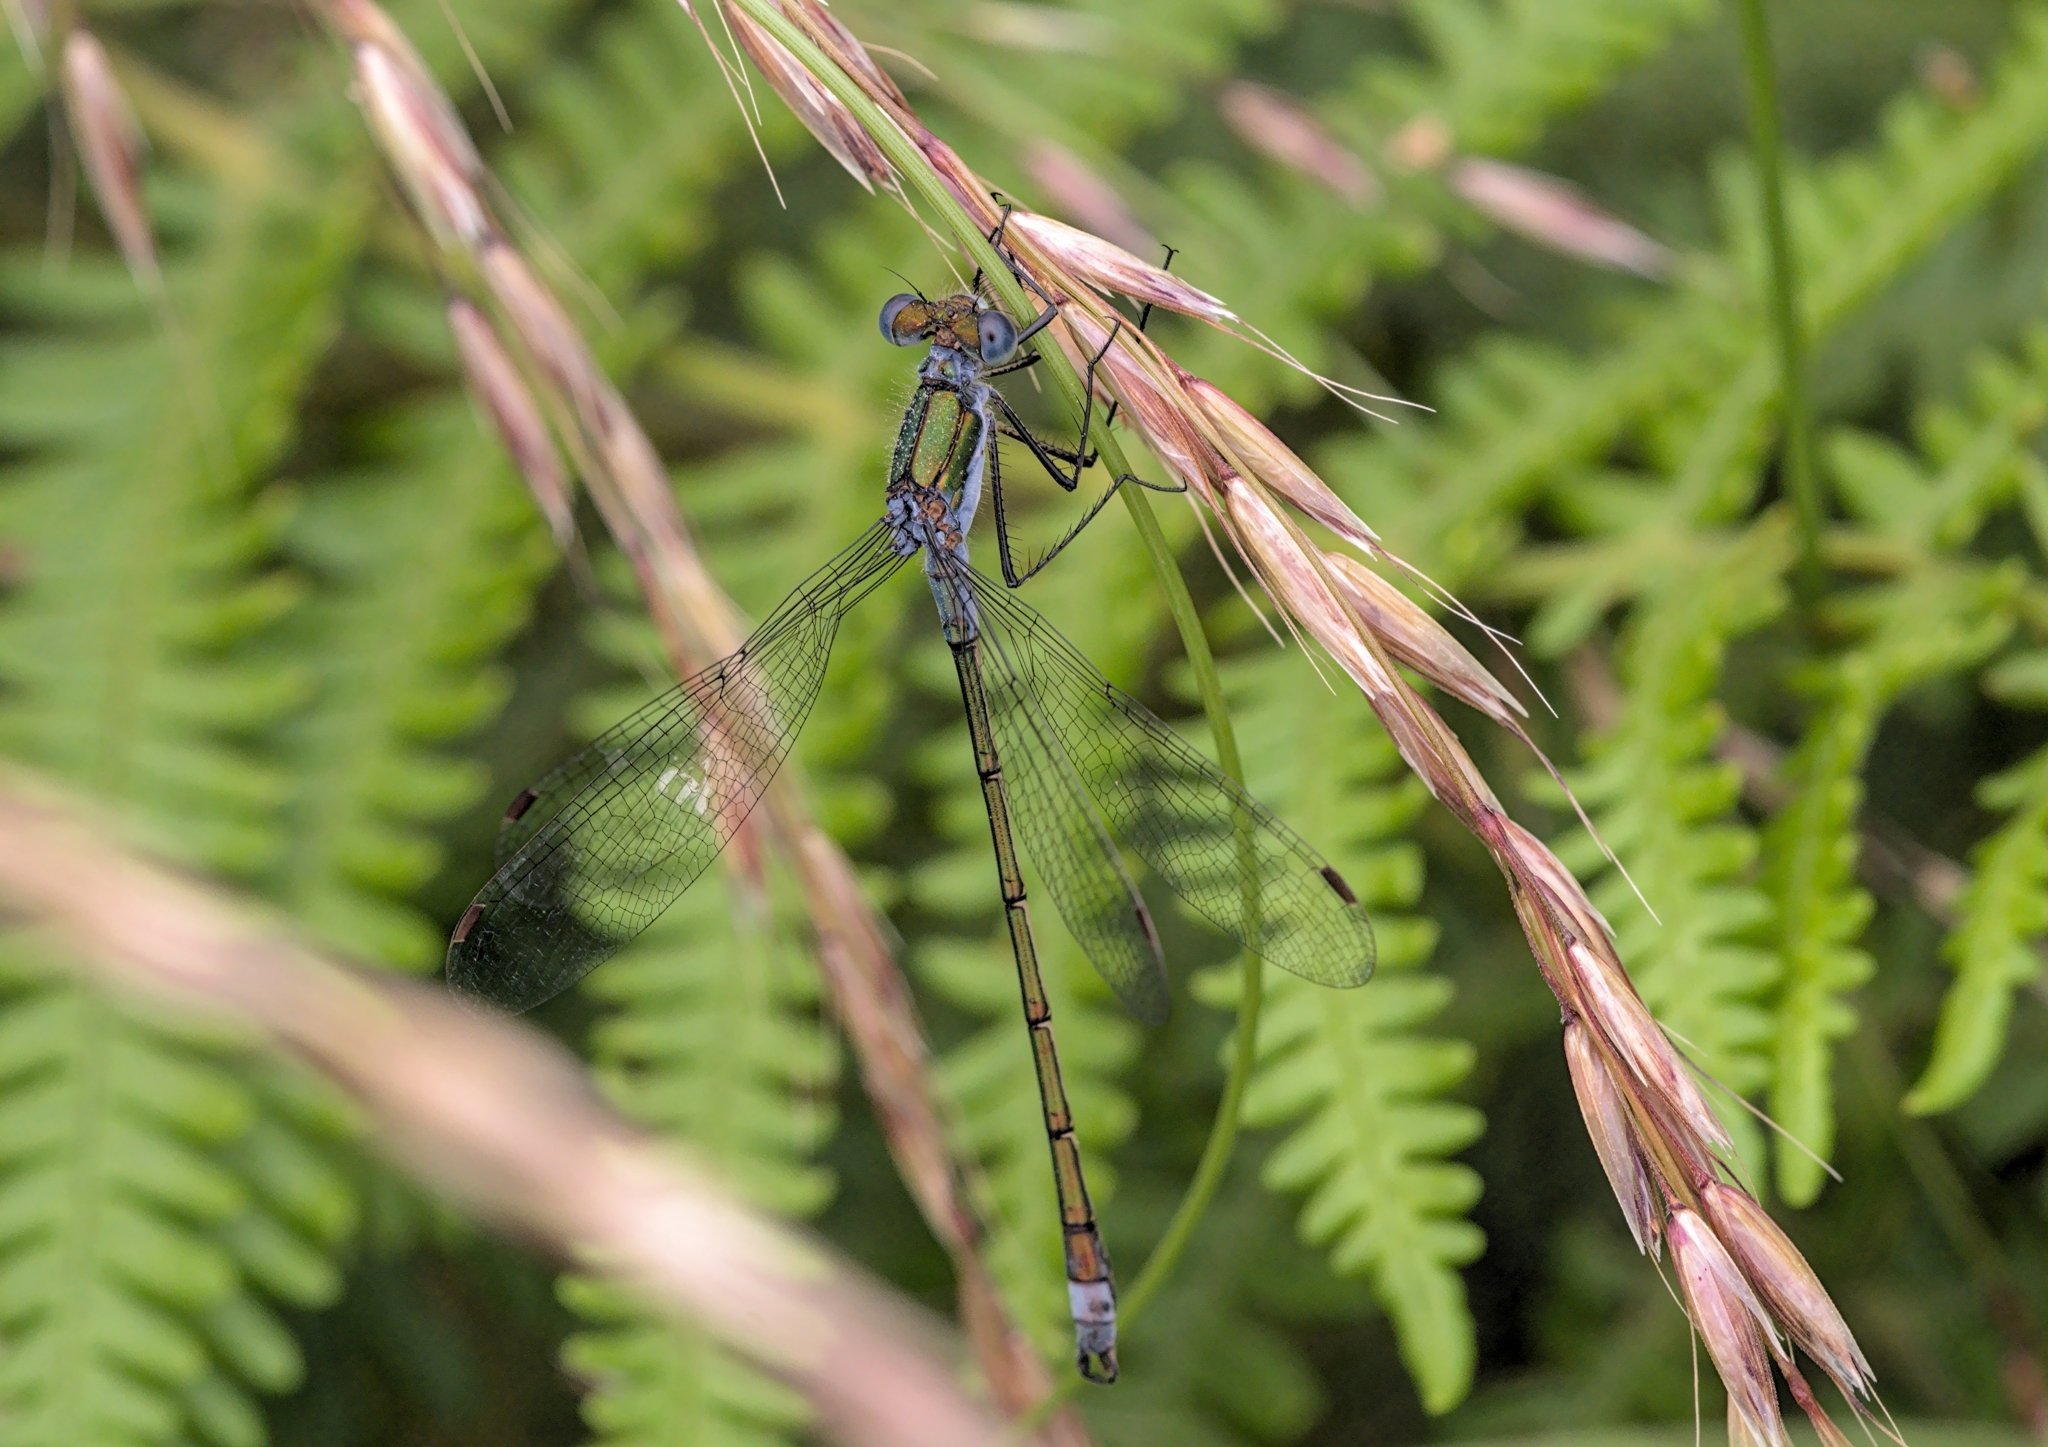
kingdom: Animalia
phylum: Arthropoda
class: Insecta
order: Odonata
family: Lestidae
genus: Lestes
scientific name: Lestes sponsa
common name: Common spreadwing
